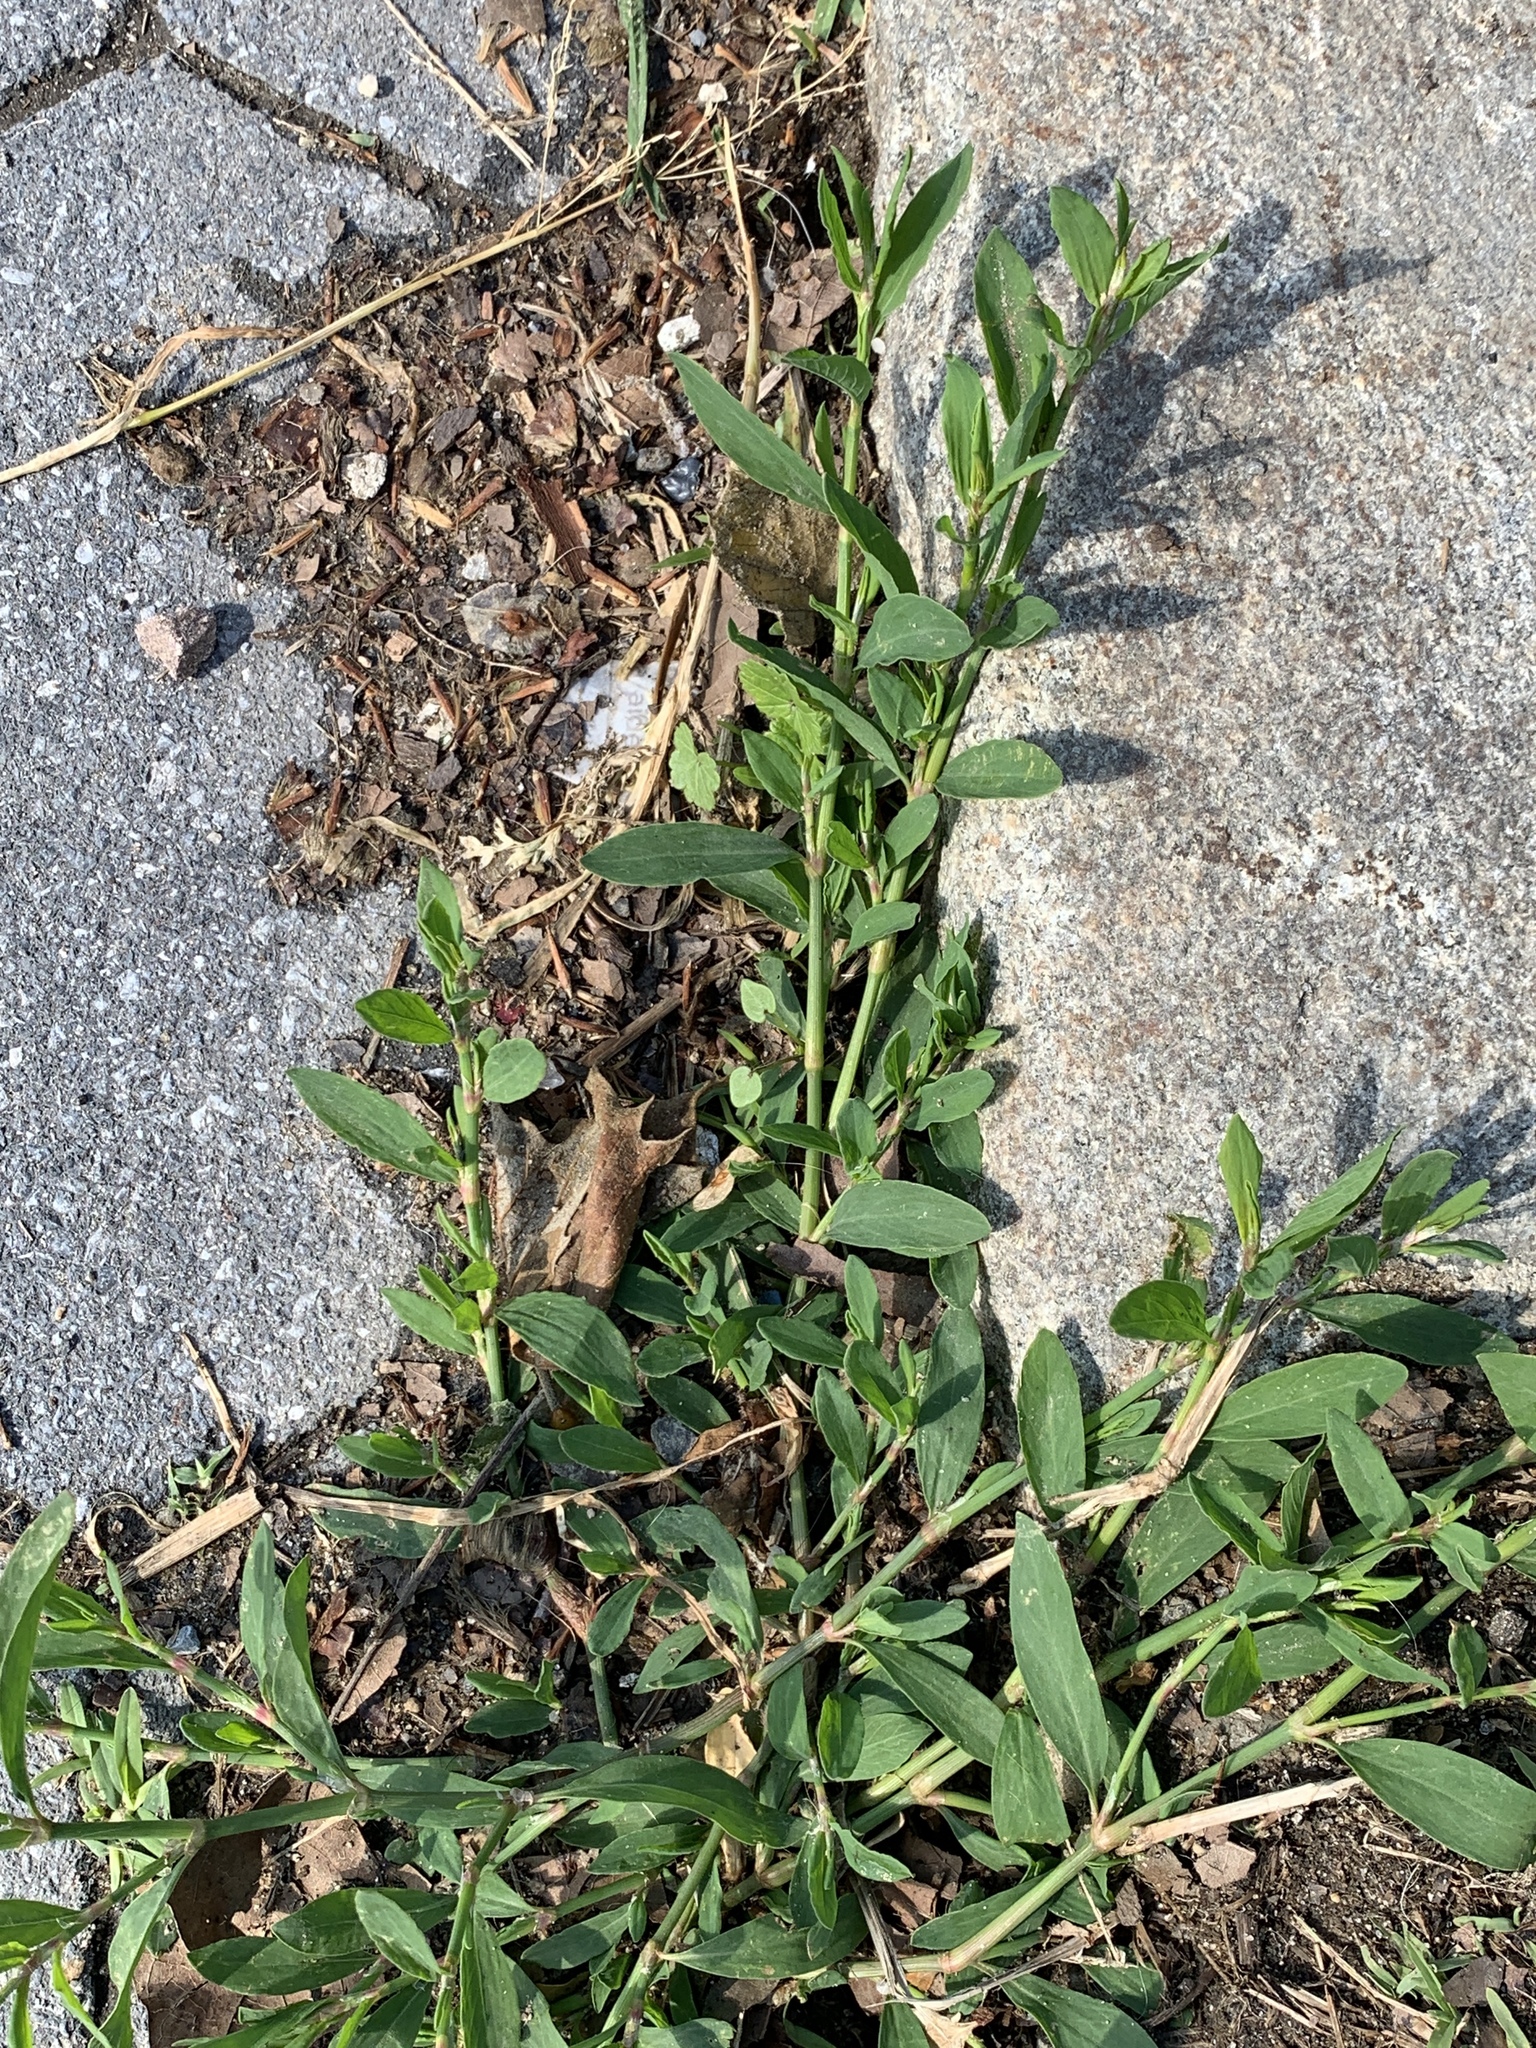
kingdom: Plantae
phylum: Tracheophyta
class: Magnoliopsida
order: Caryophyllales
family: Polygonaceae
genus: Polygonum
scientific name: Polygonum aviculare
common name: Prostrate knotweed
